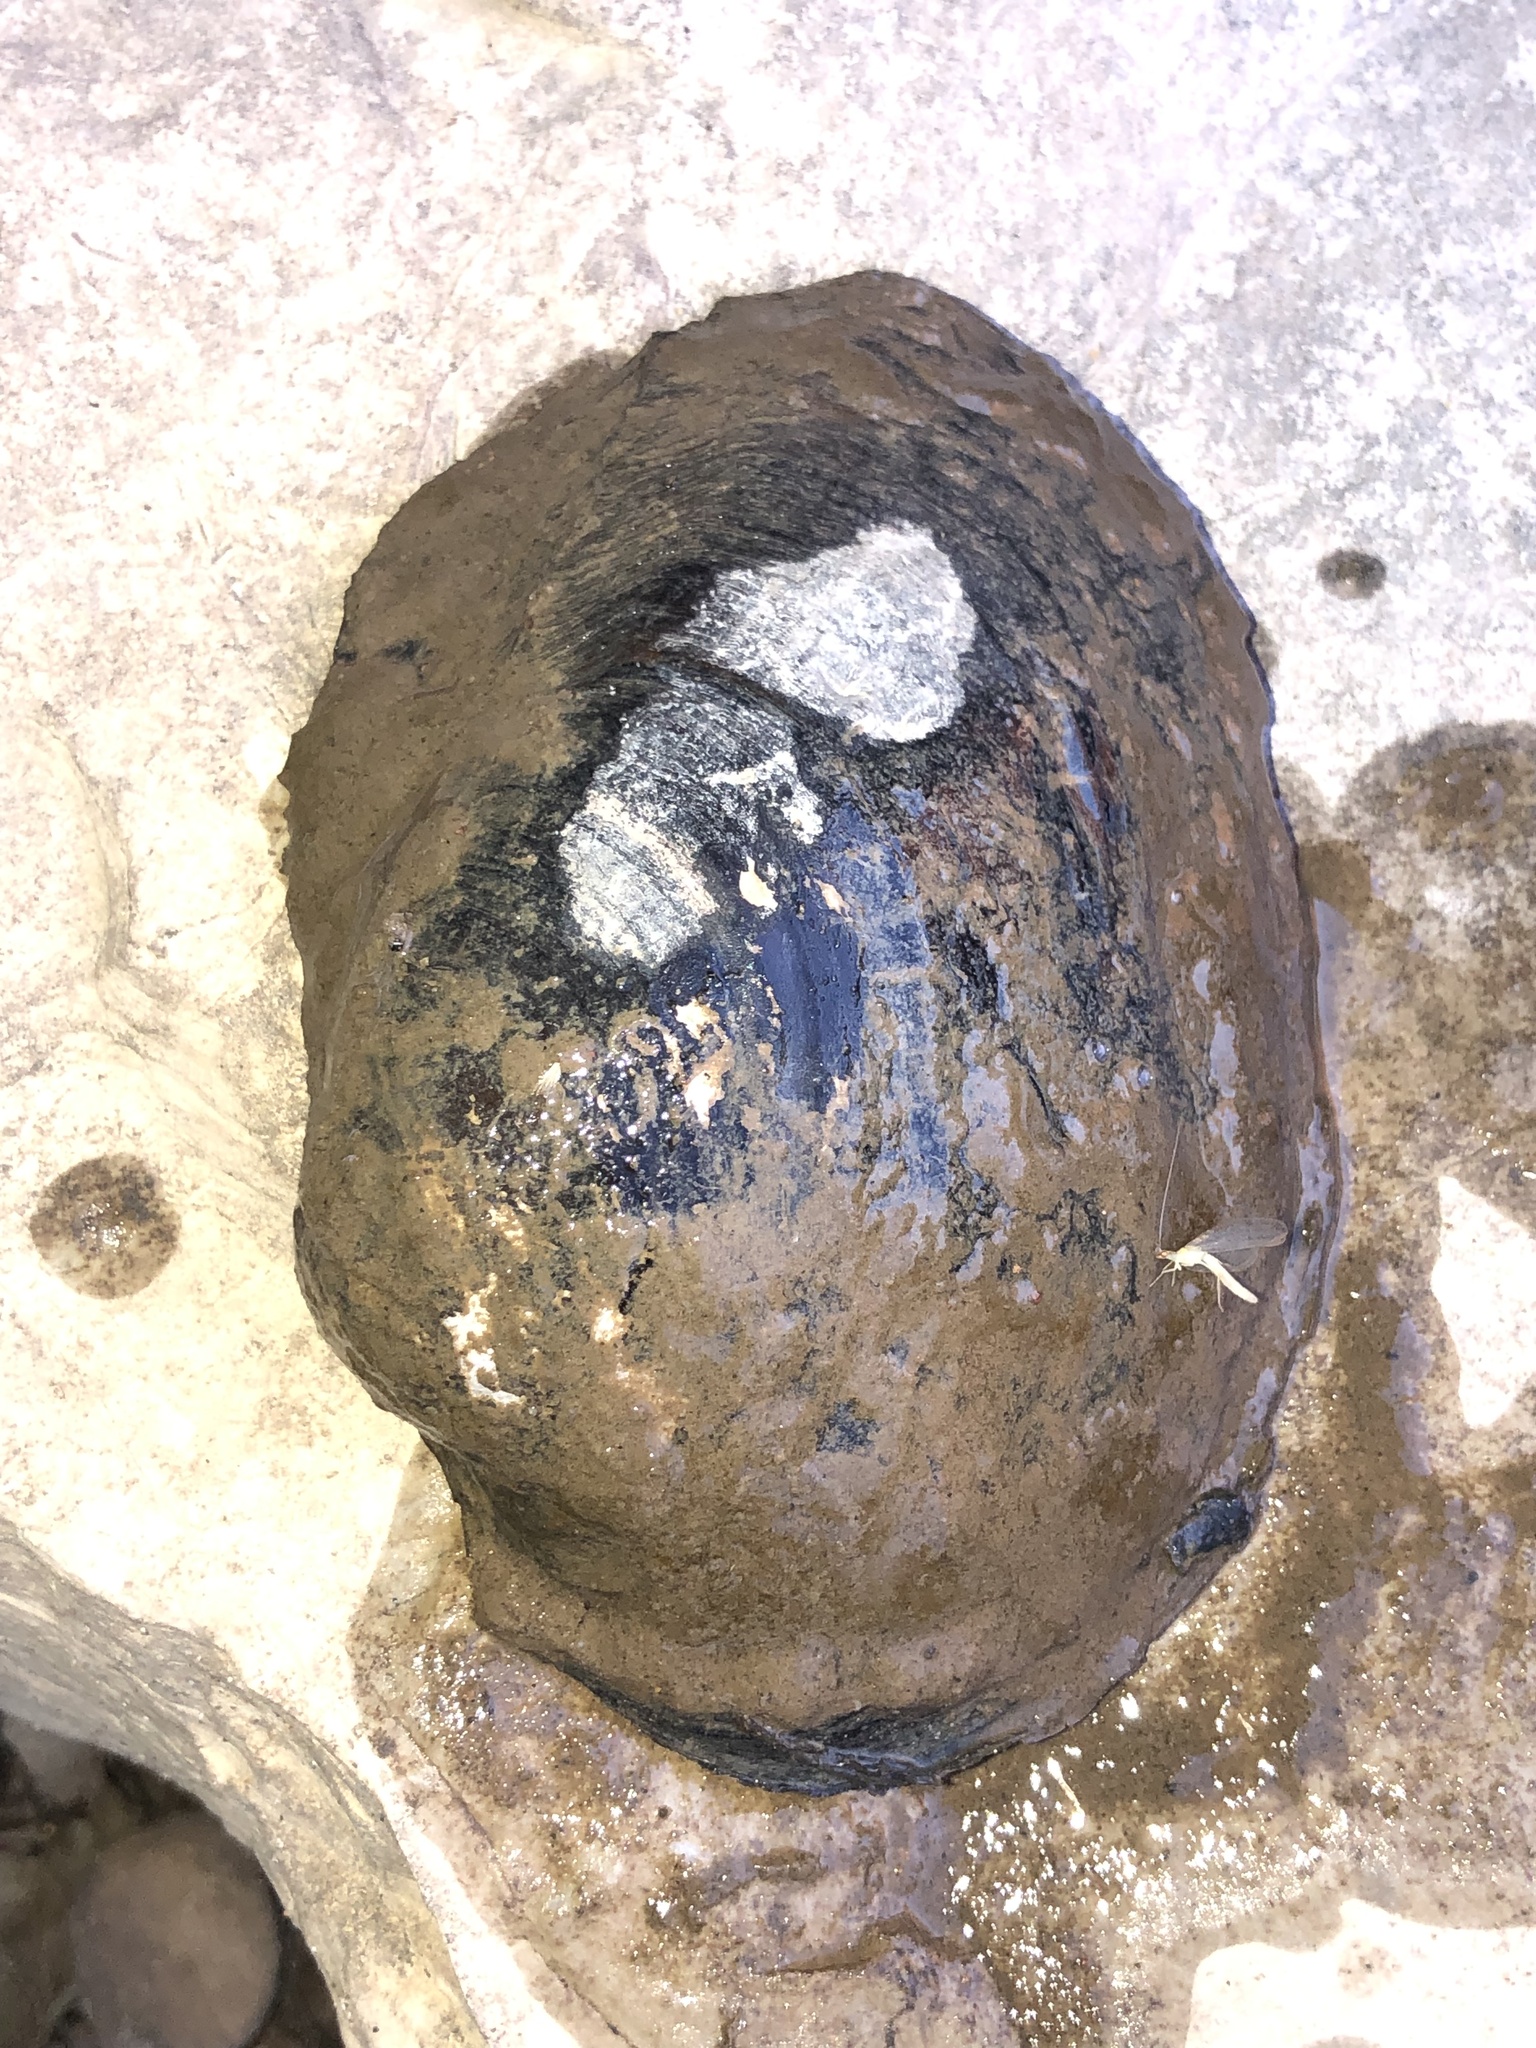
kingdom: Animalia
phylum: Mollusca
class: Bivalvia
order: Unionida
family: Unionidae
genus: Potamilus
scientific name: Potamilus purpuratus
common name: Bleufer
